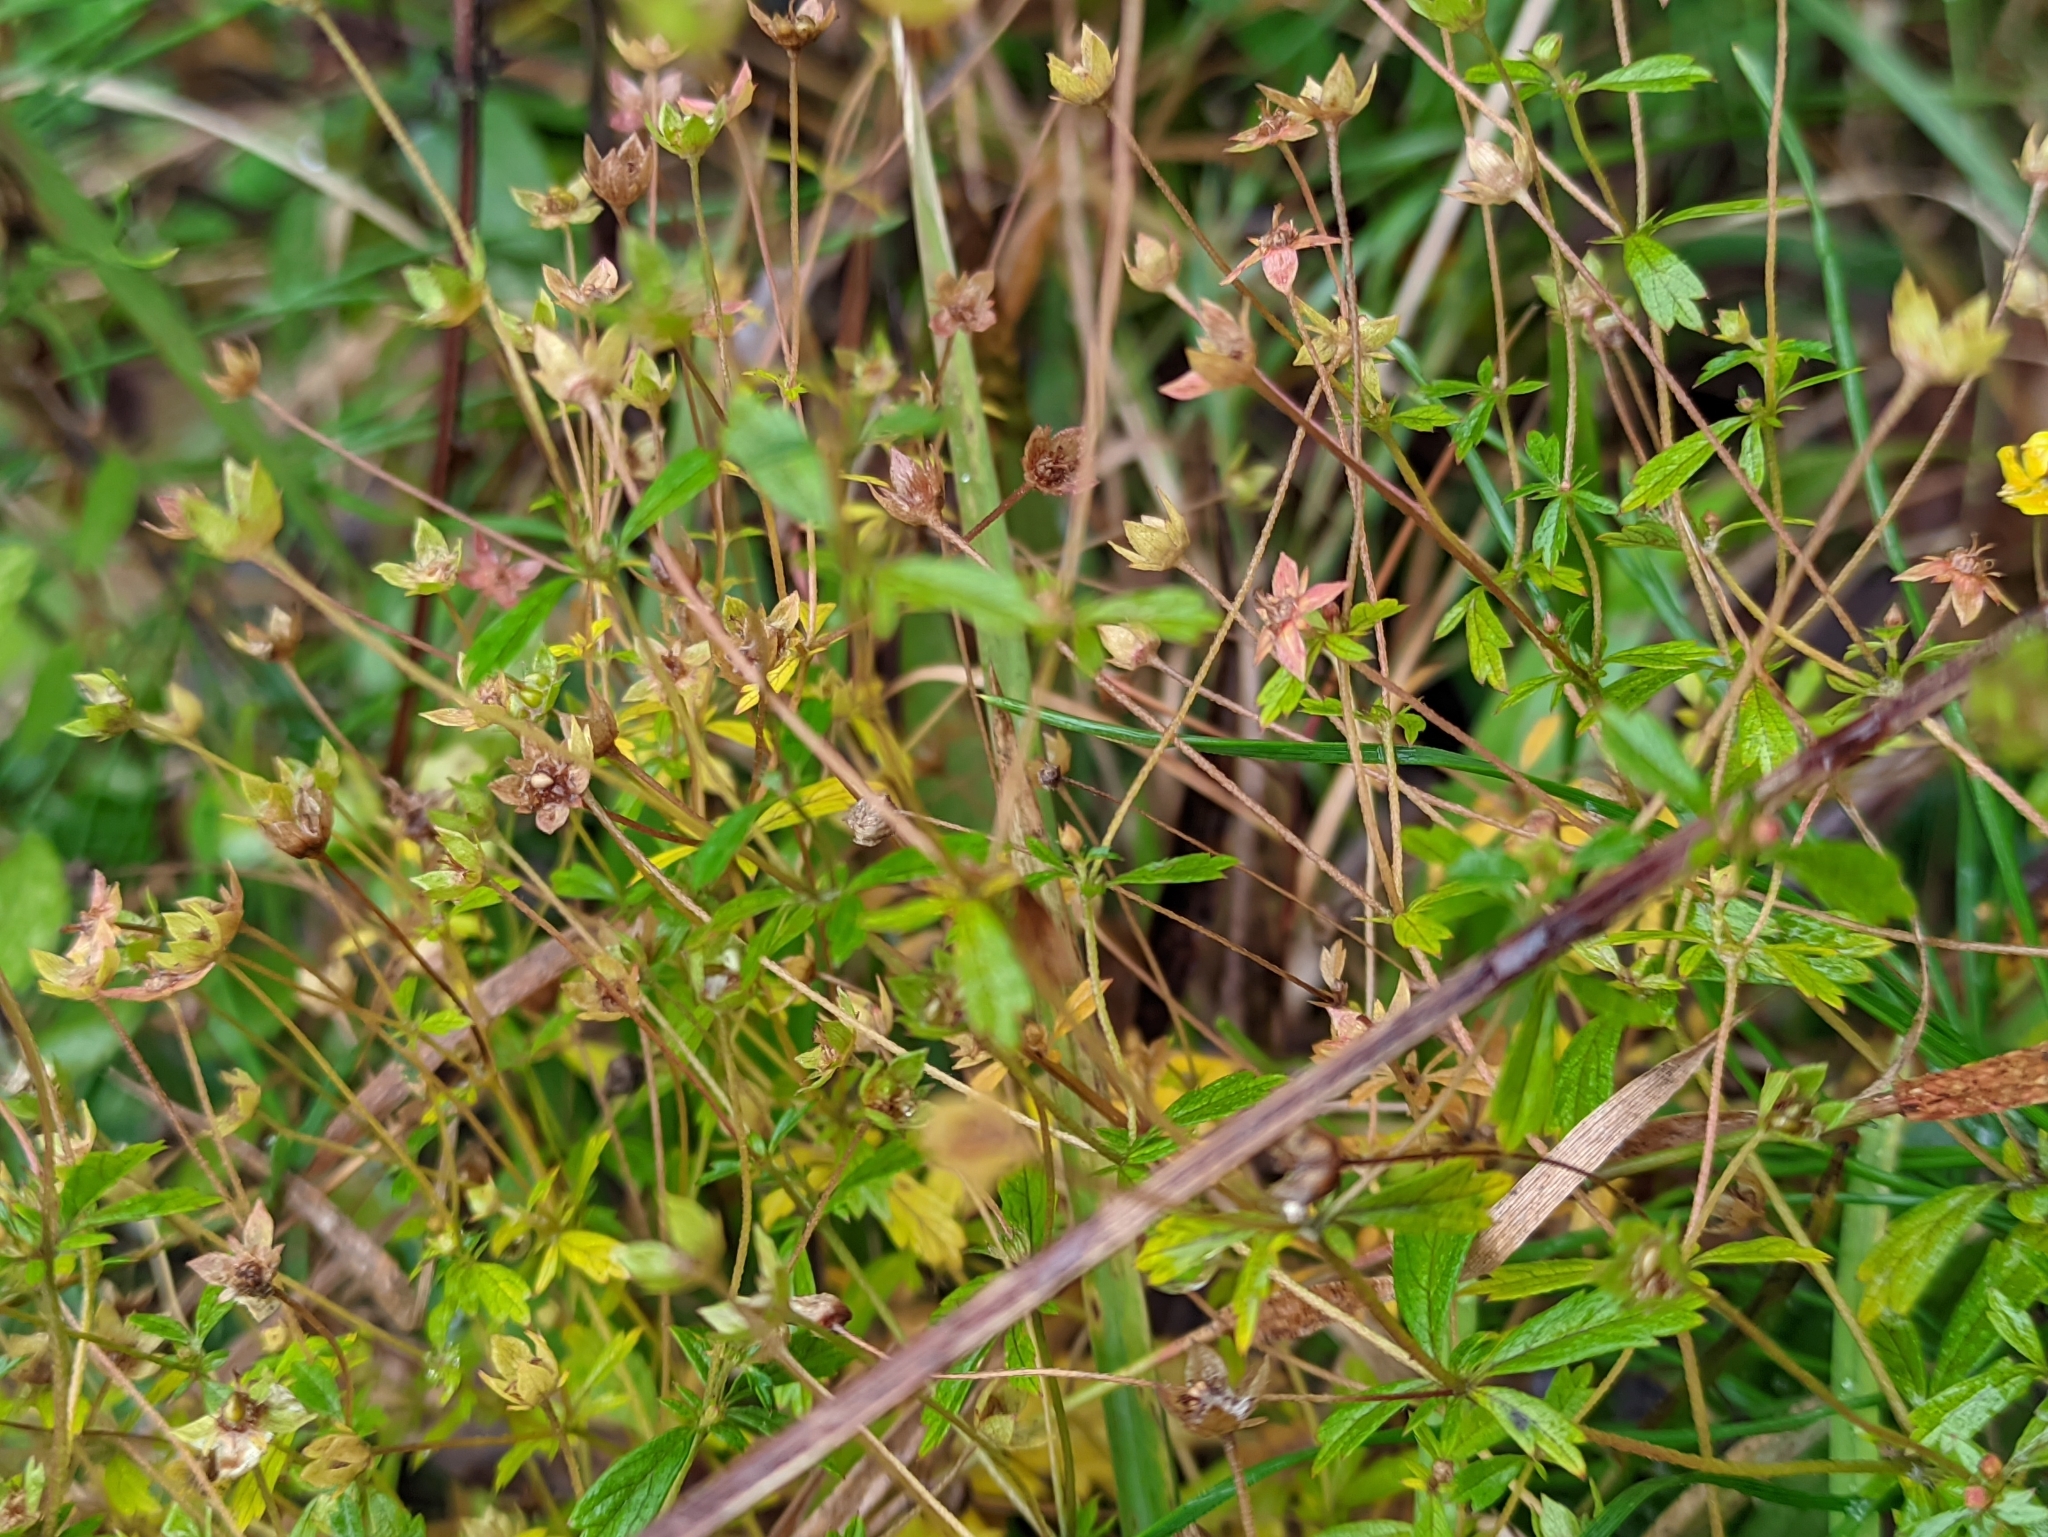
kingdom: Plantae
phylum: Tracheophyta
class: Magnoliopsida
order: Rosales
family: Rosaceae
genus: Potentilla
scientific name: Potentilla erecta
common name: Tormentil
